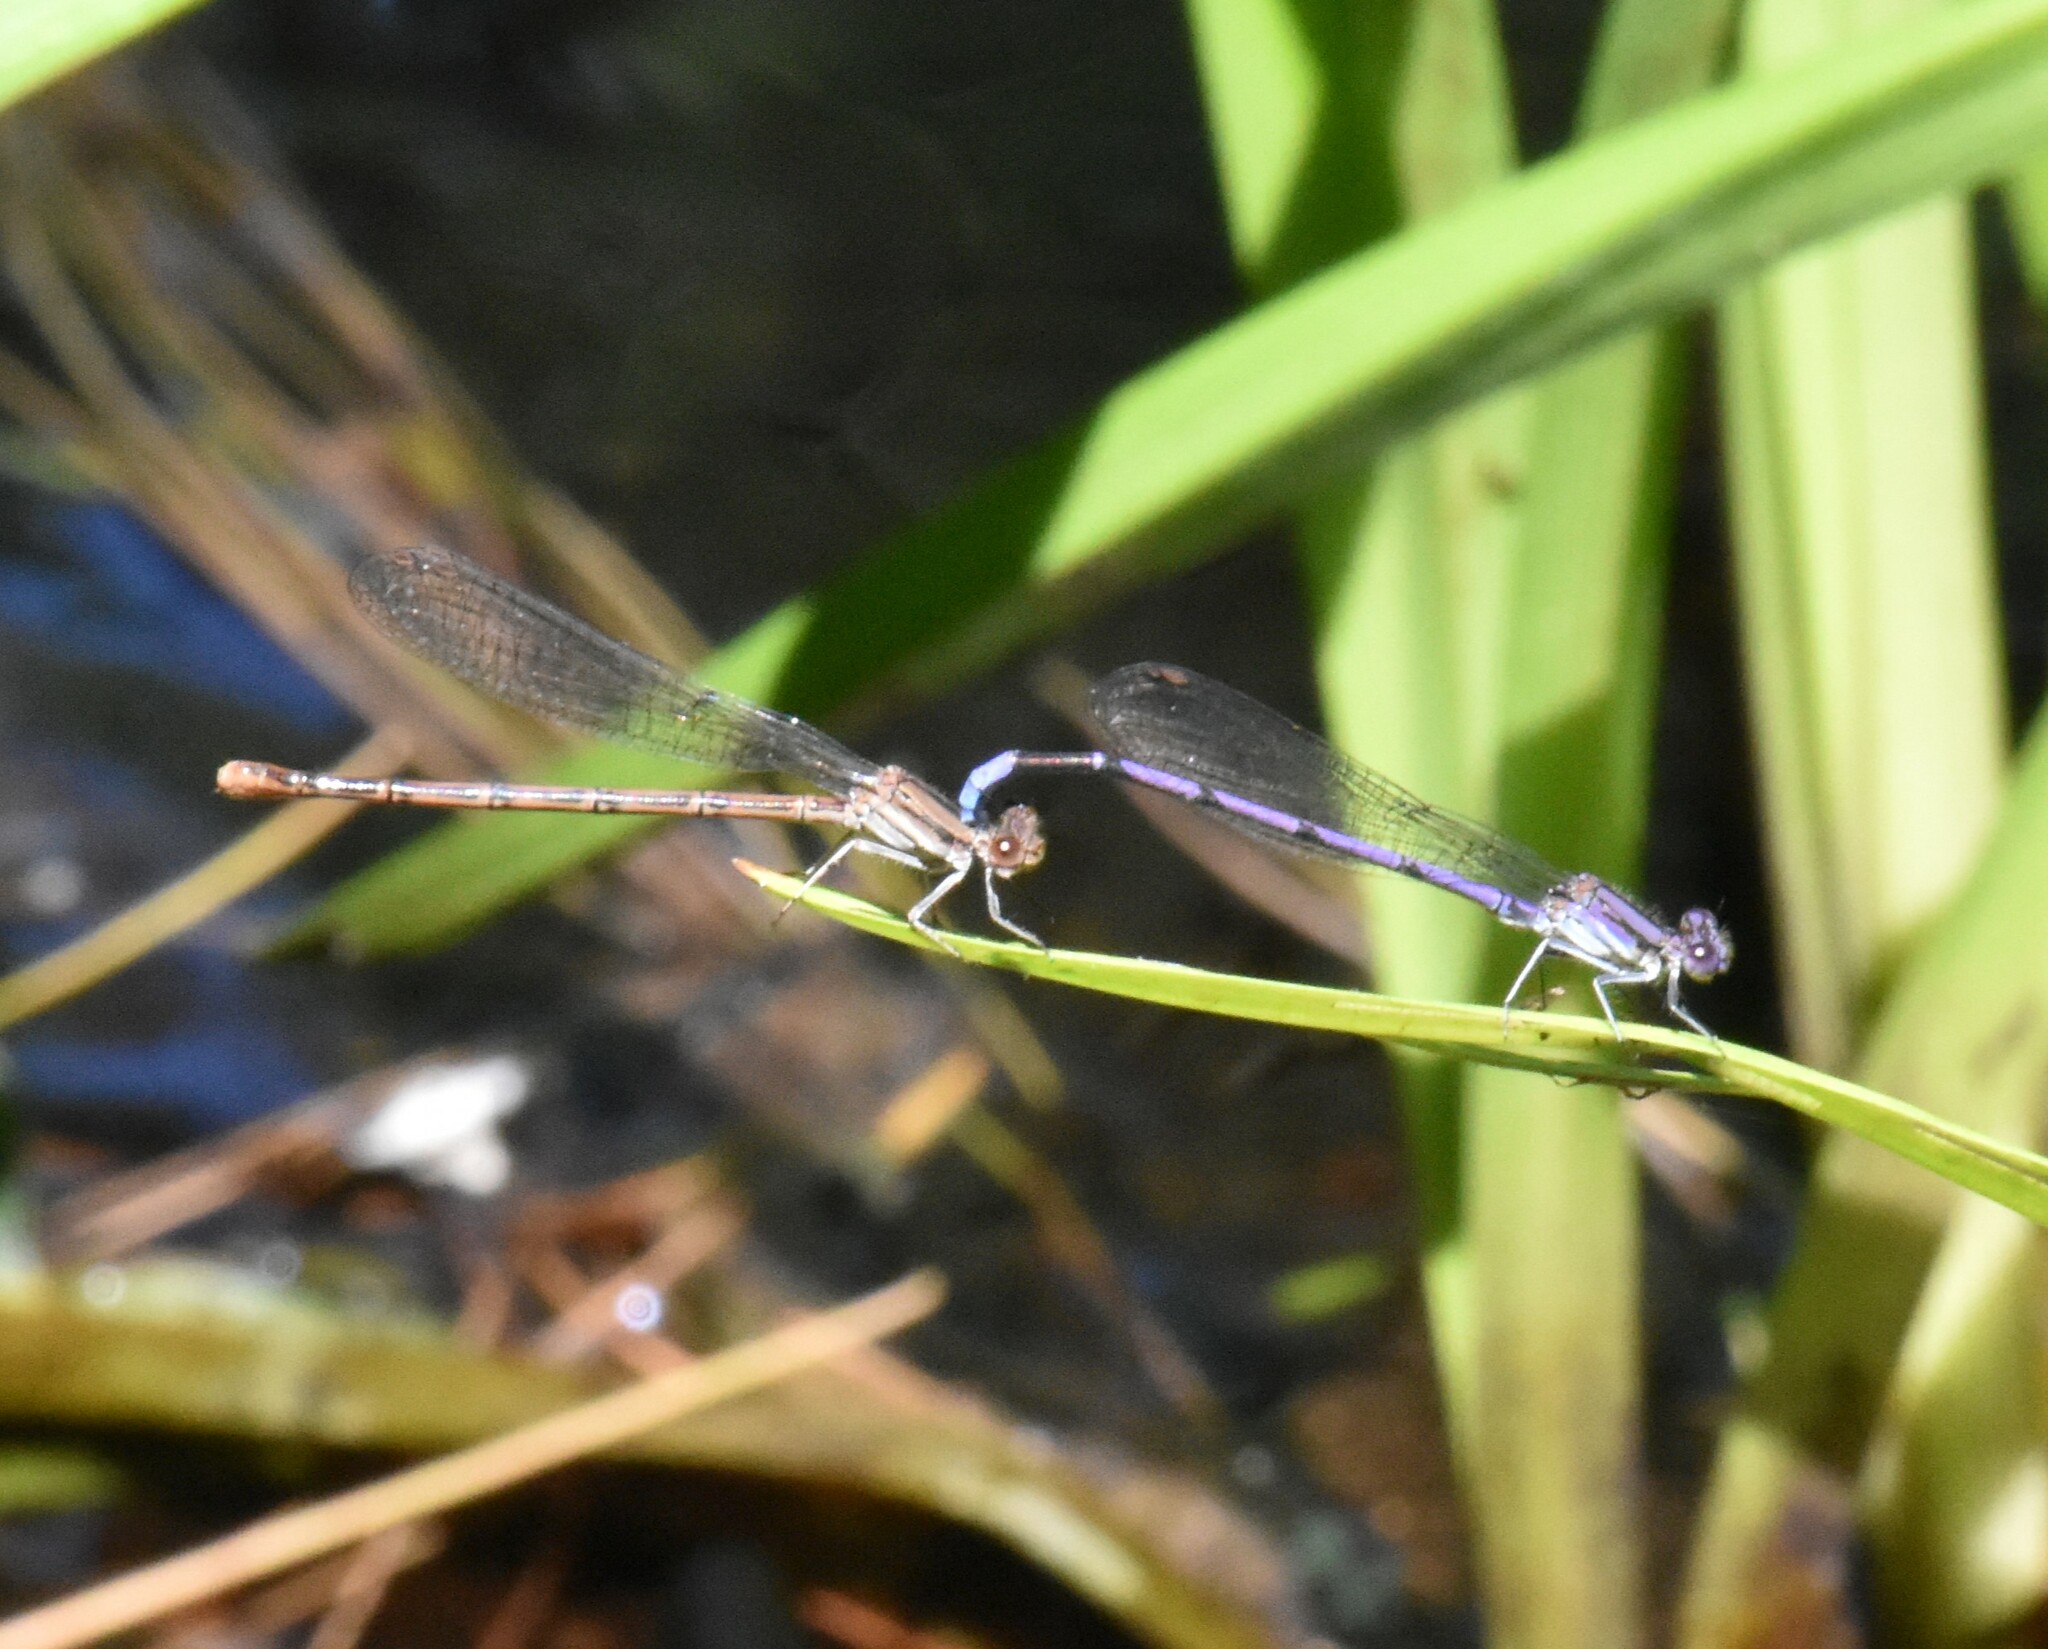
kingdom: Animalia
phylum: Arthropoda
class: Insecta
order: Odonata
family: Coenagrionidae
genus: Argia
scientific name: Argia fumipennis
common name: Variable dancer
